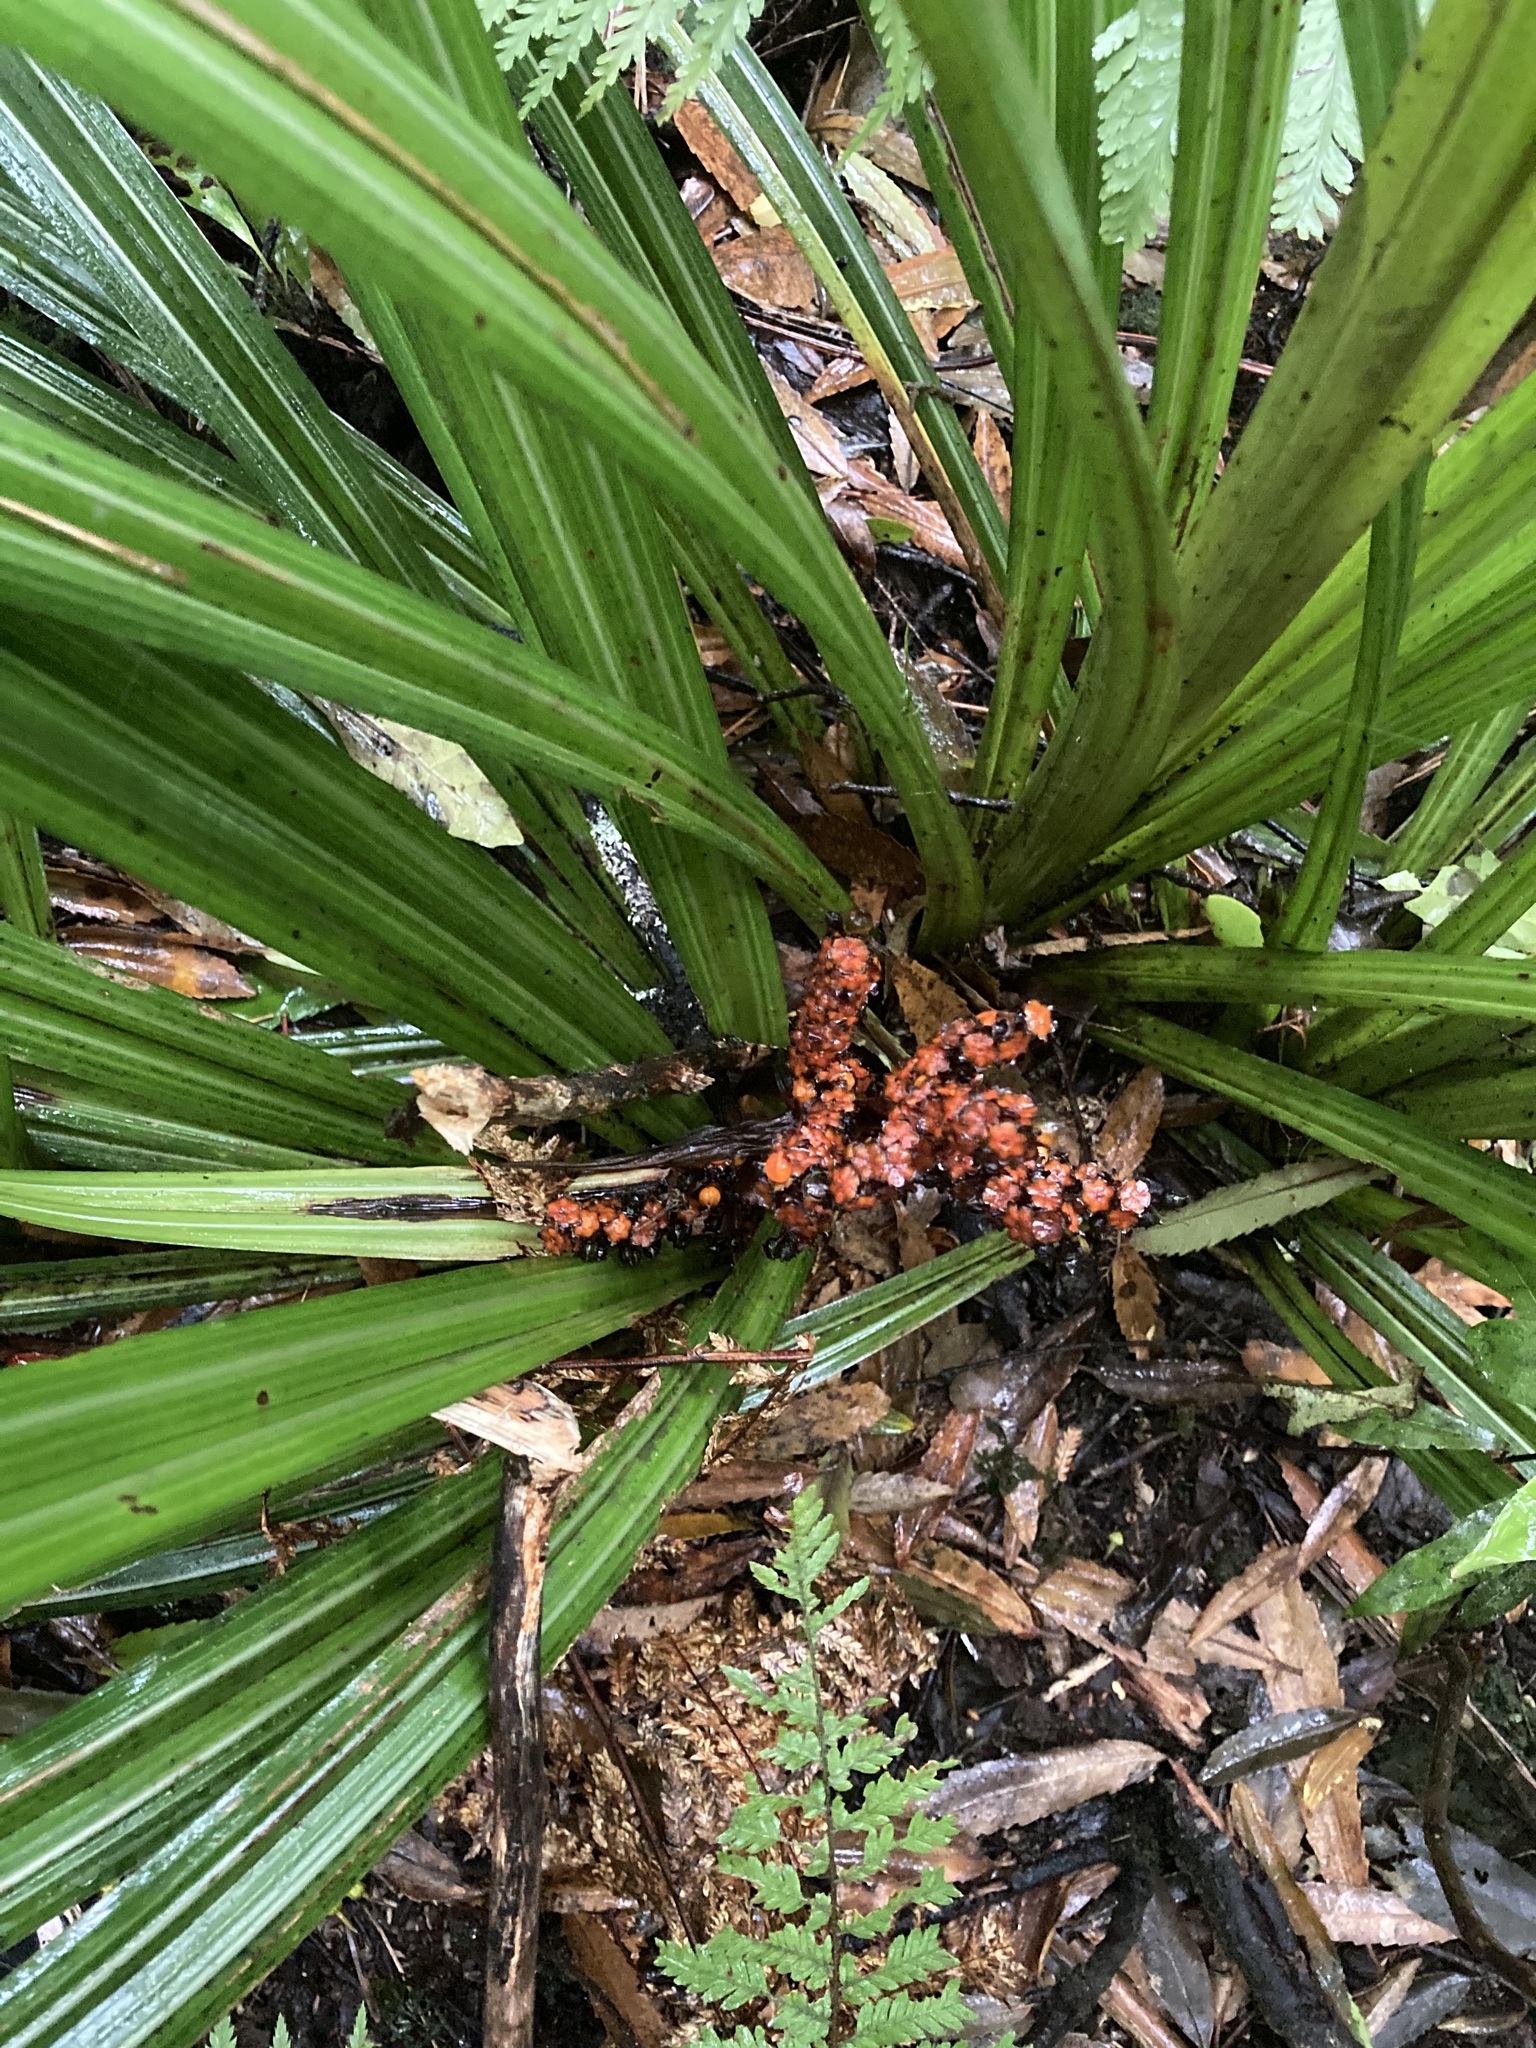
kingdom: Plantae
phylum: Tracheophyta
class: Liliopsida
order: Asparagales
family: Asteliaceae
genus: Astelia
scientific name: Astelia fragrans
